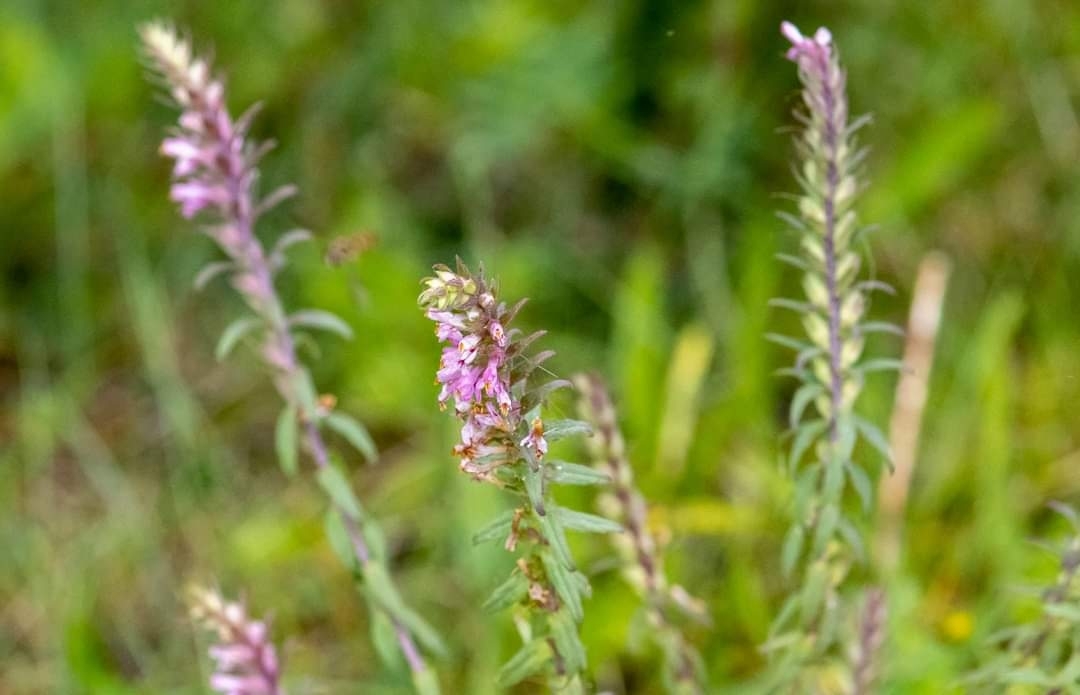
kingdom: Plantae
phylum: Tracheophyta
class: Magnoliopsida
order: Lamiales
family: Orobanchaceae
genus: Odontites
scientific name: Odontites vulgaris
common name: Broomrape
